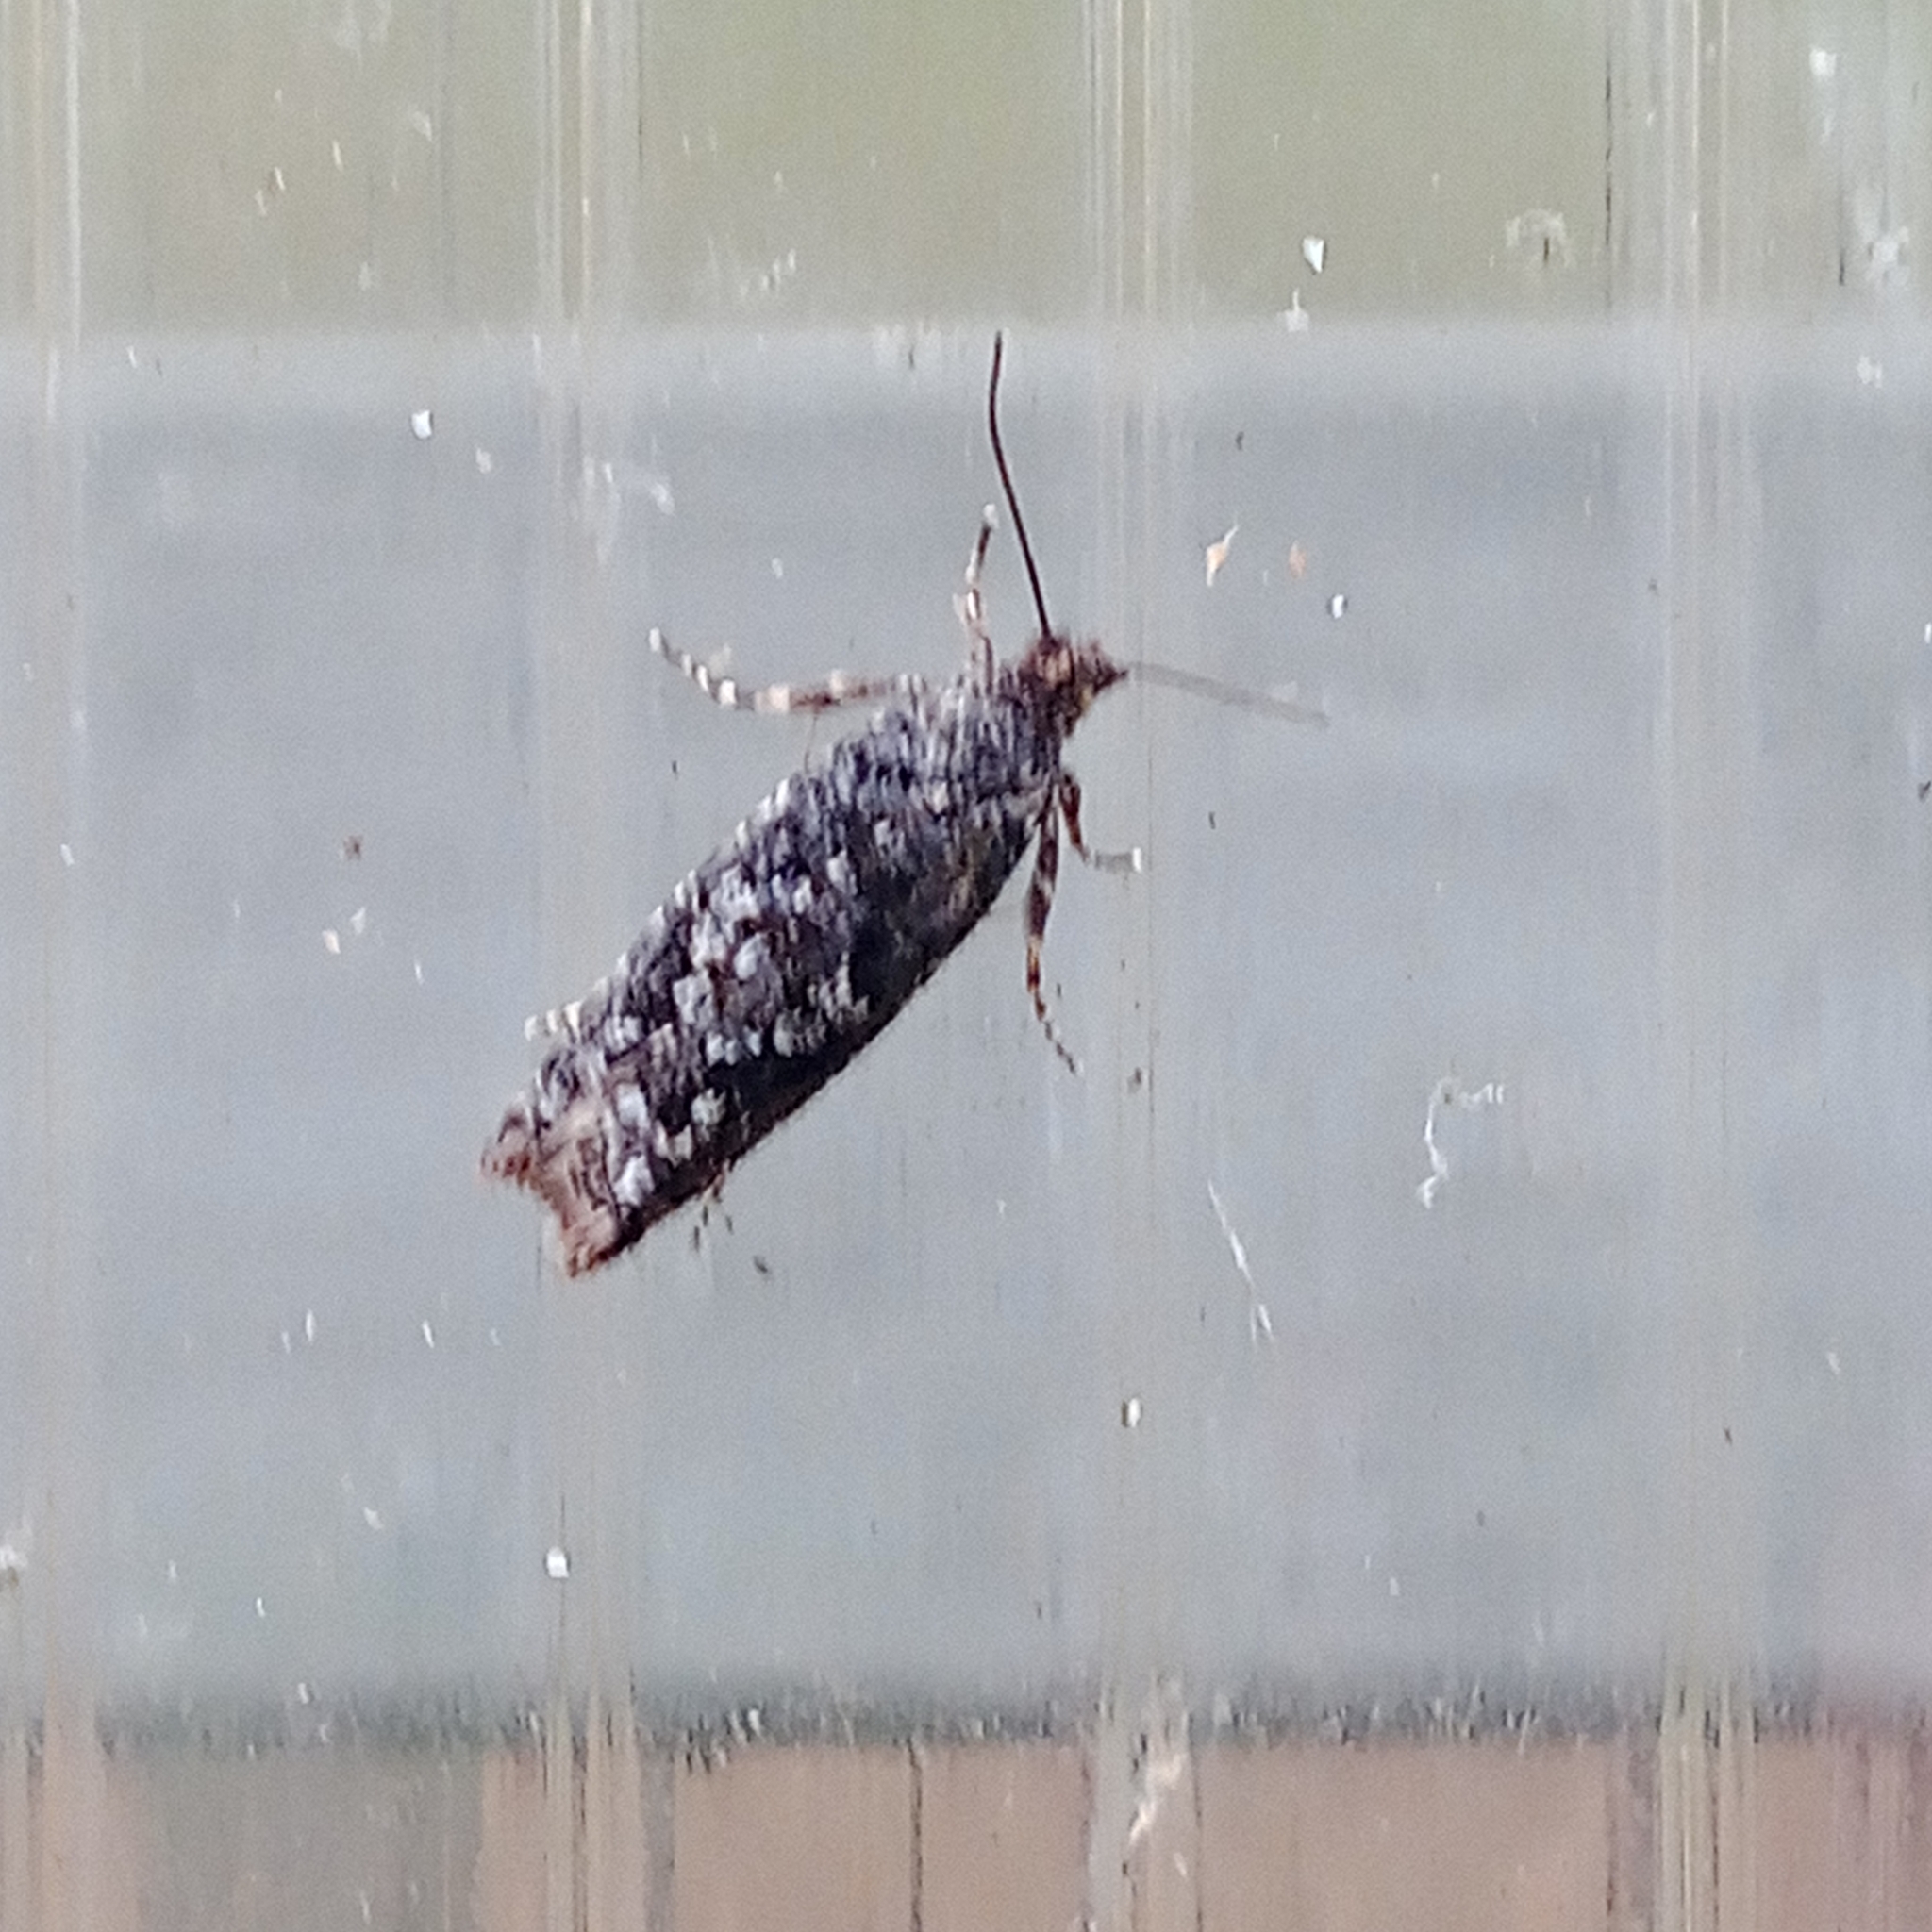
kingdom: Animalia
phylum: Arthropoda
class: Insecta
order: Lepidoptera
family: Tortricidae
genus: Epinotia
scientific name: Epinotia crenana
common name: Highland bell
